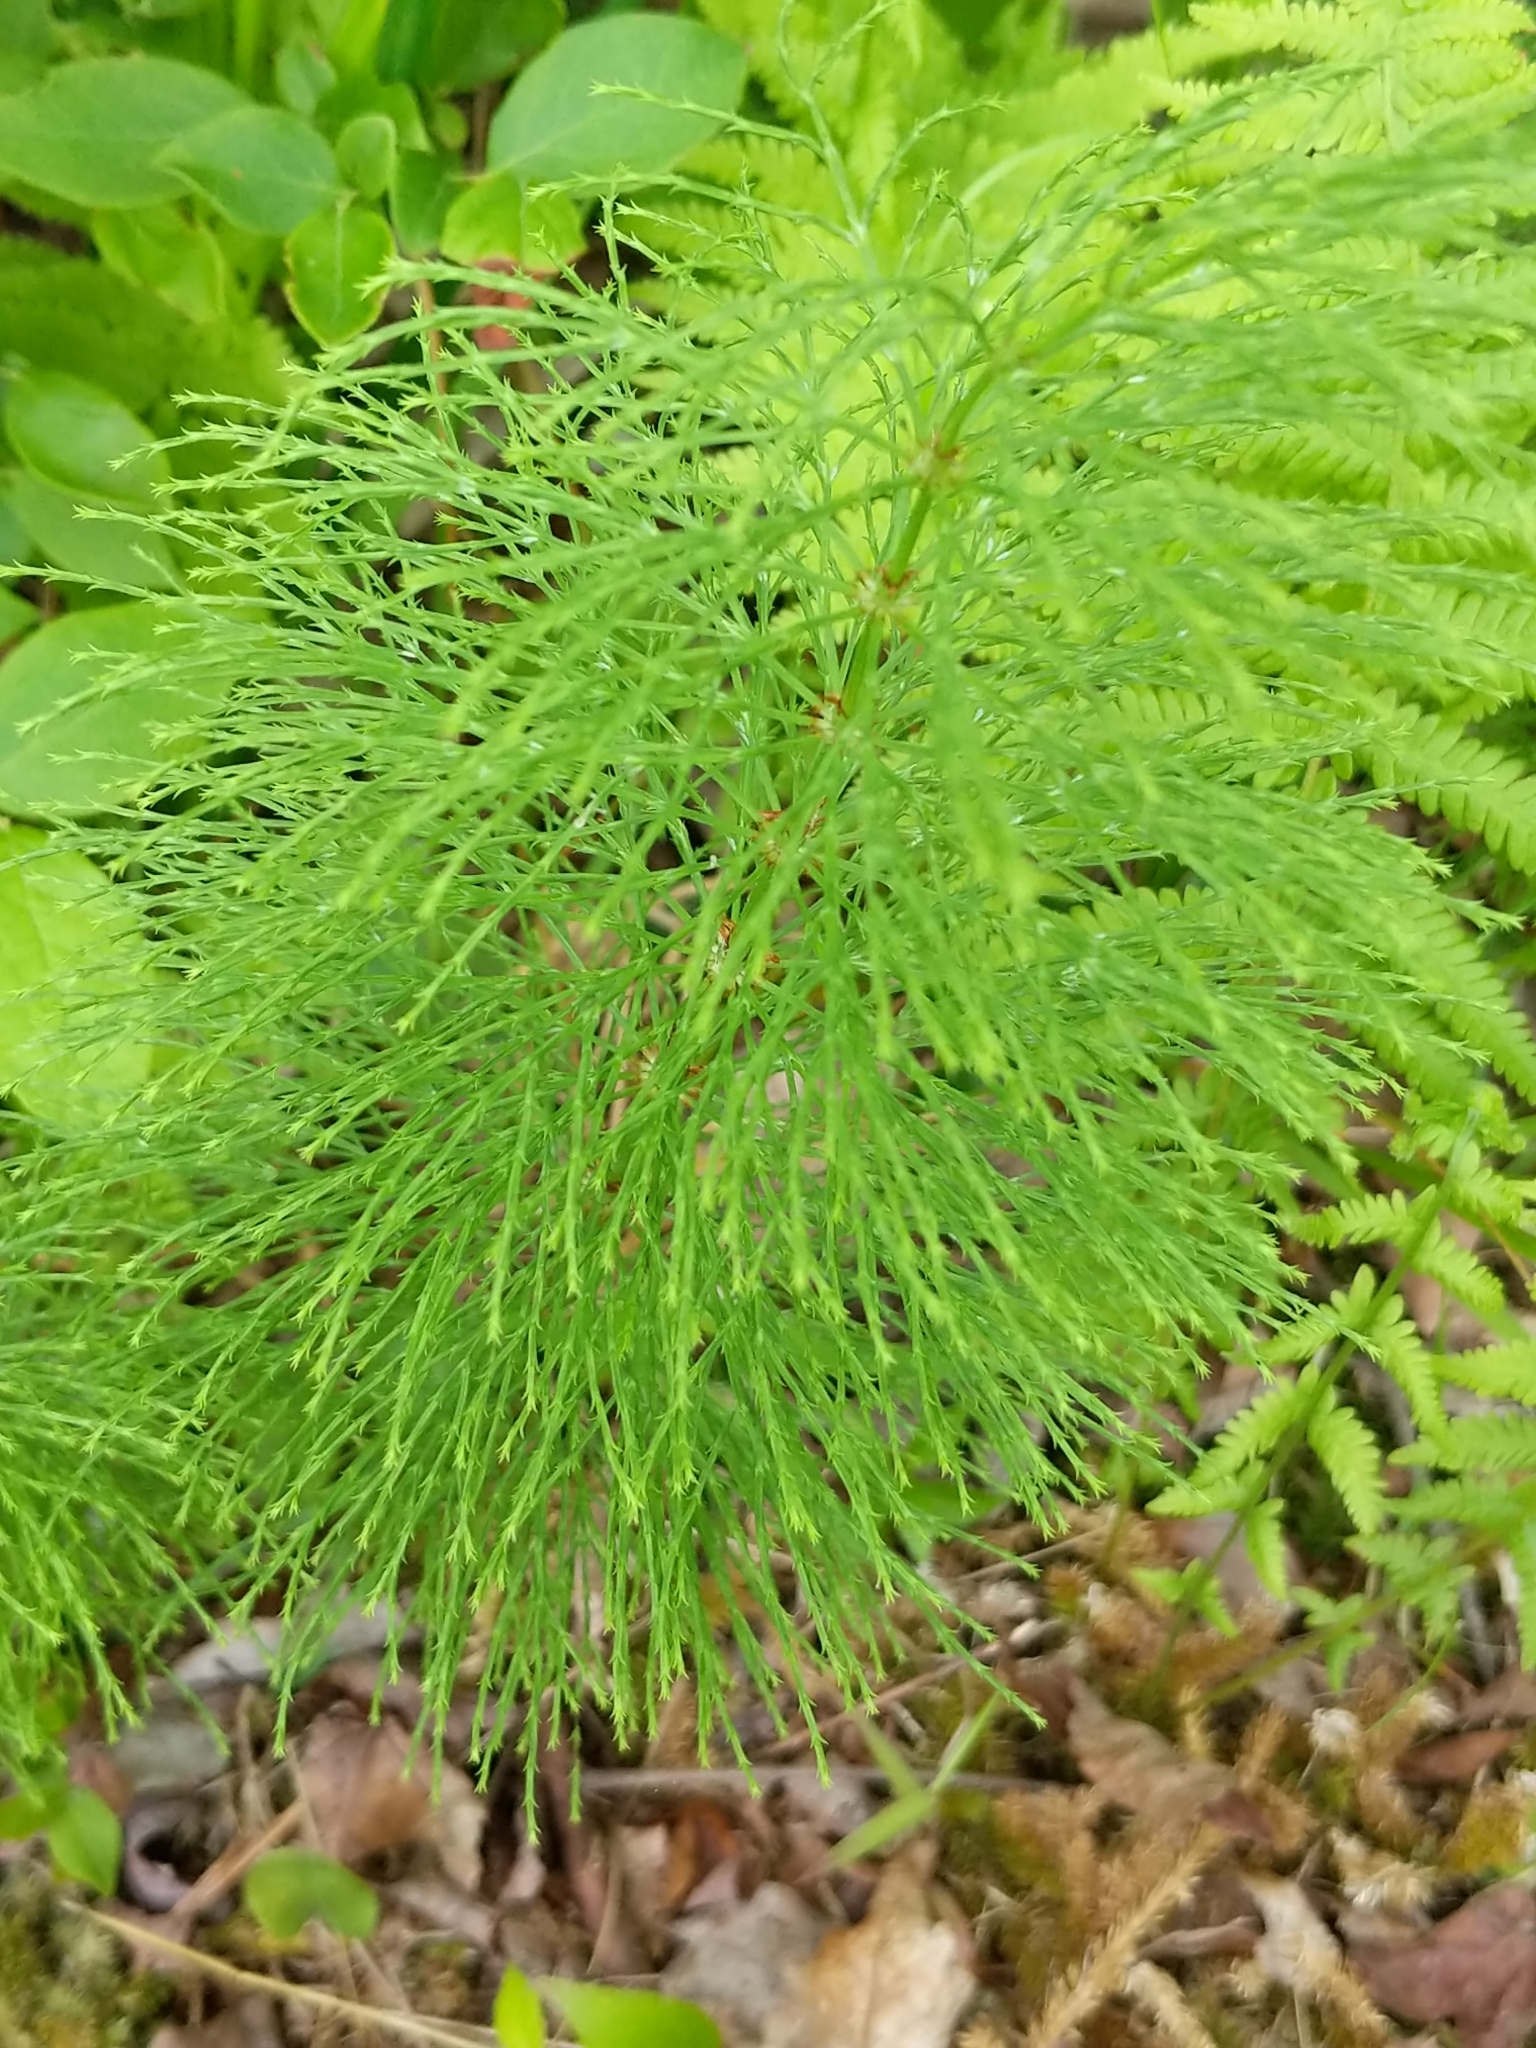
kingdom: Plantae
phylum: Tracheophyta
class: Polypodiopsida
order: Equisetales
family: Equisetaceae
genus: Equisetum
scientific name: Equisetum sylvaticum
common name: Wood horsetail
